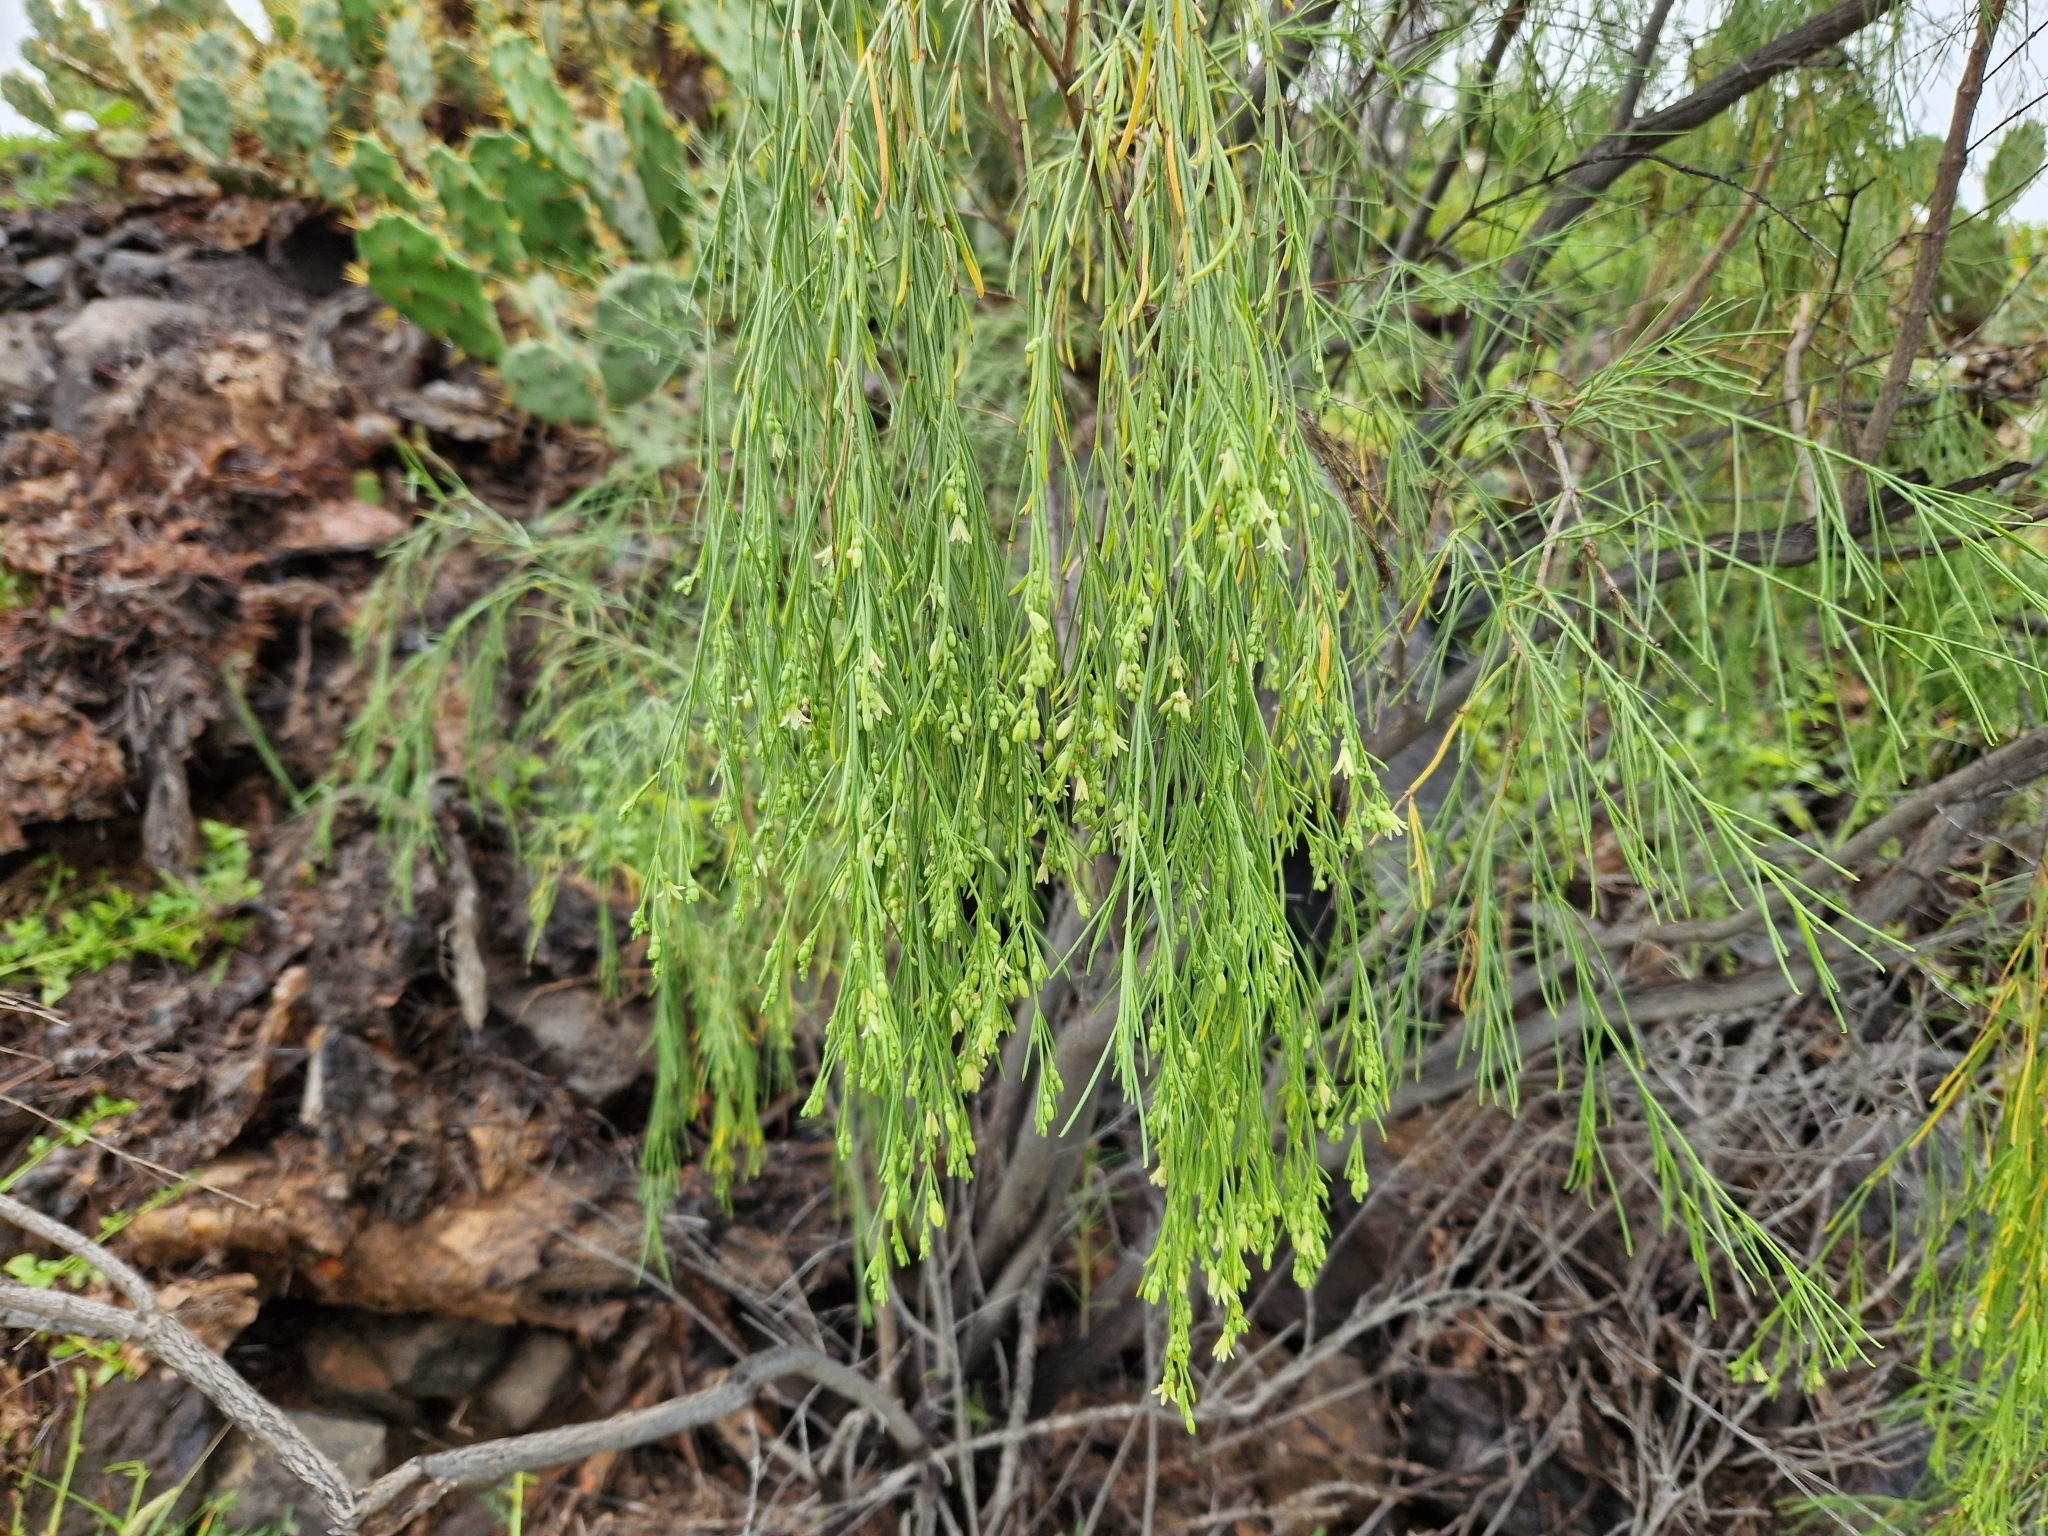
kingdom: Plantae
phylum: Tracheophyta
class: Magnoliopsida
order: Gentianales
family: Rubiaceae
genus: Plocama
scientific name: Plocama pendula
